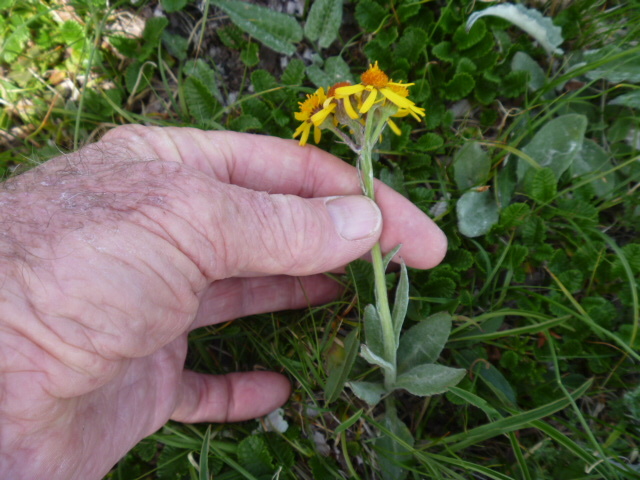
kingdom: Plantae
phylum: Tracheophyta
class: Magnoliopsida
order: Asterales
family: Asteraceae
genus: Tephroseris
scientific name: Tephroseris kirilowii
